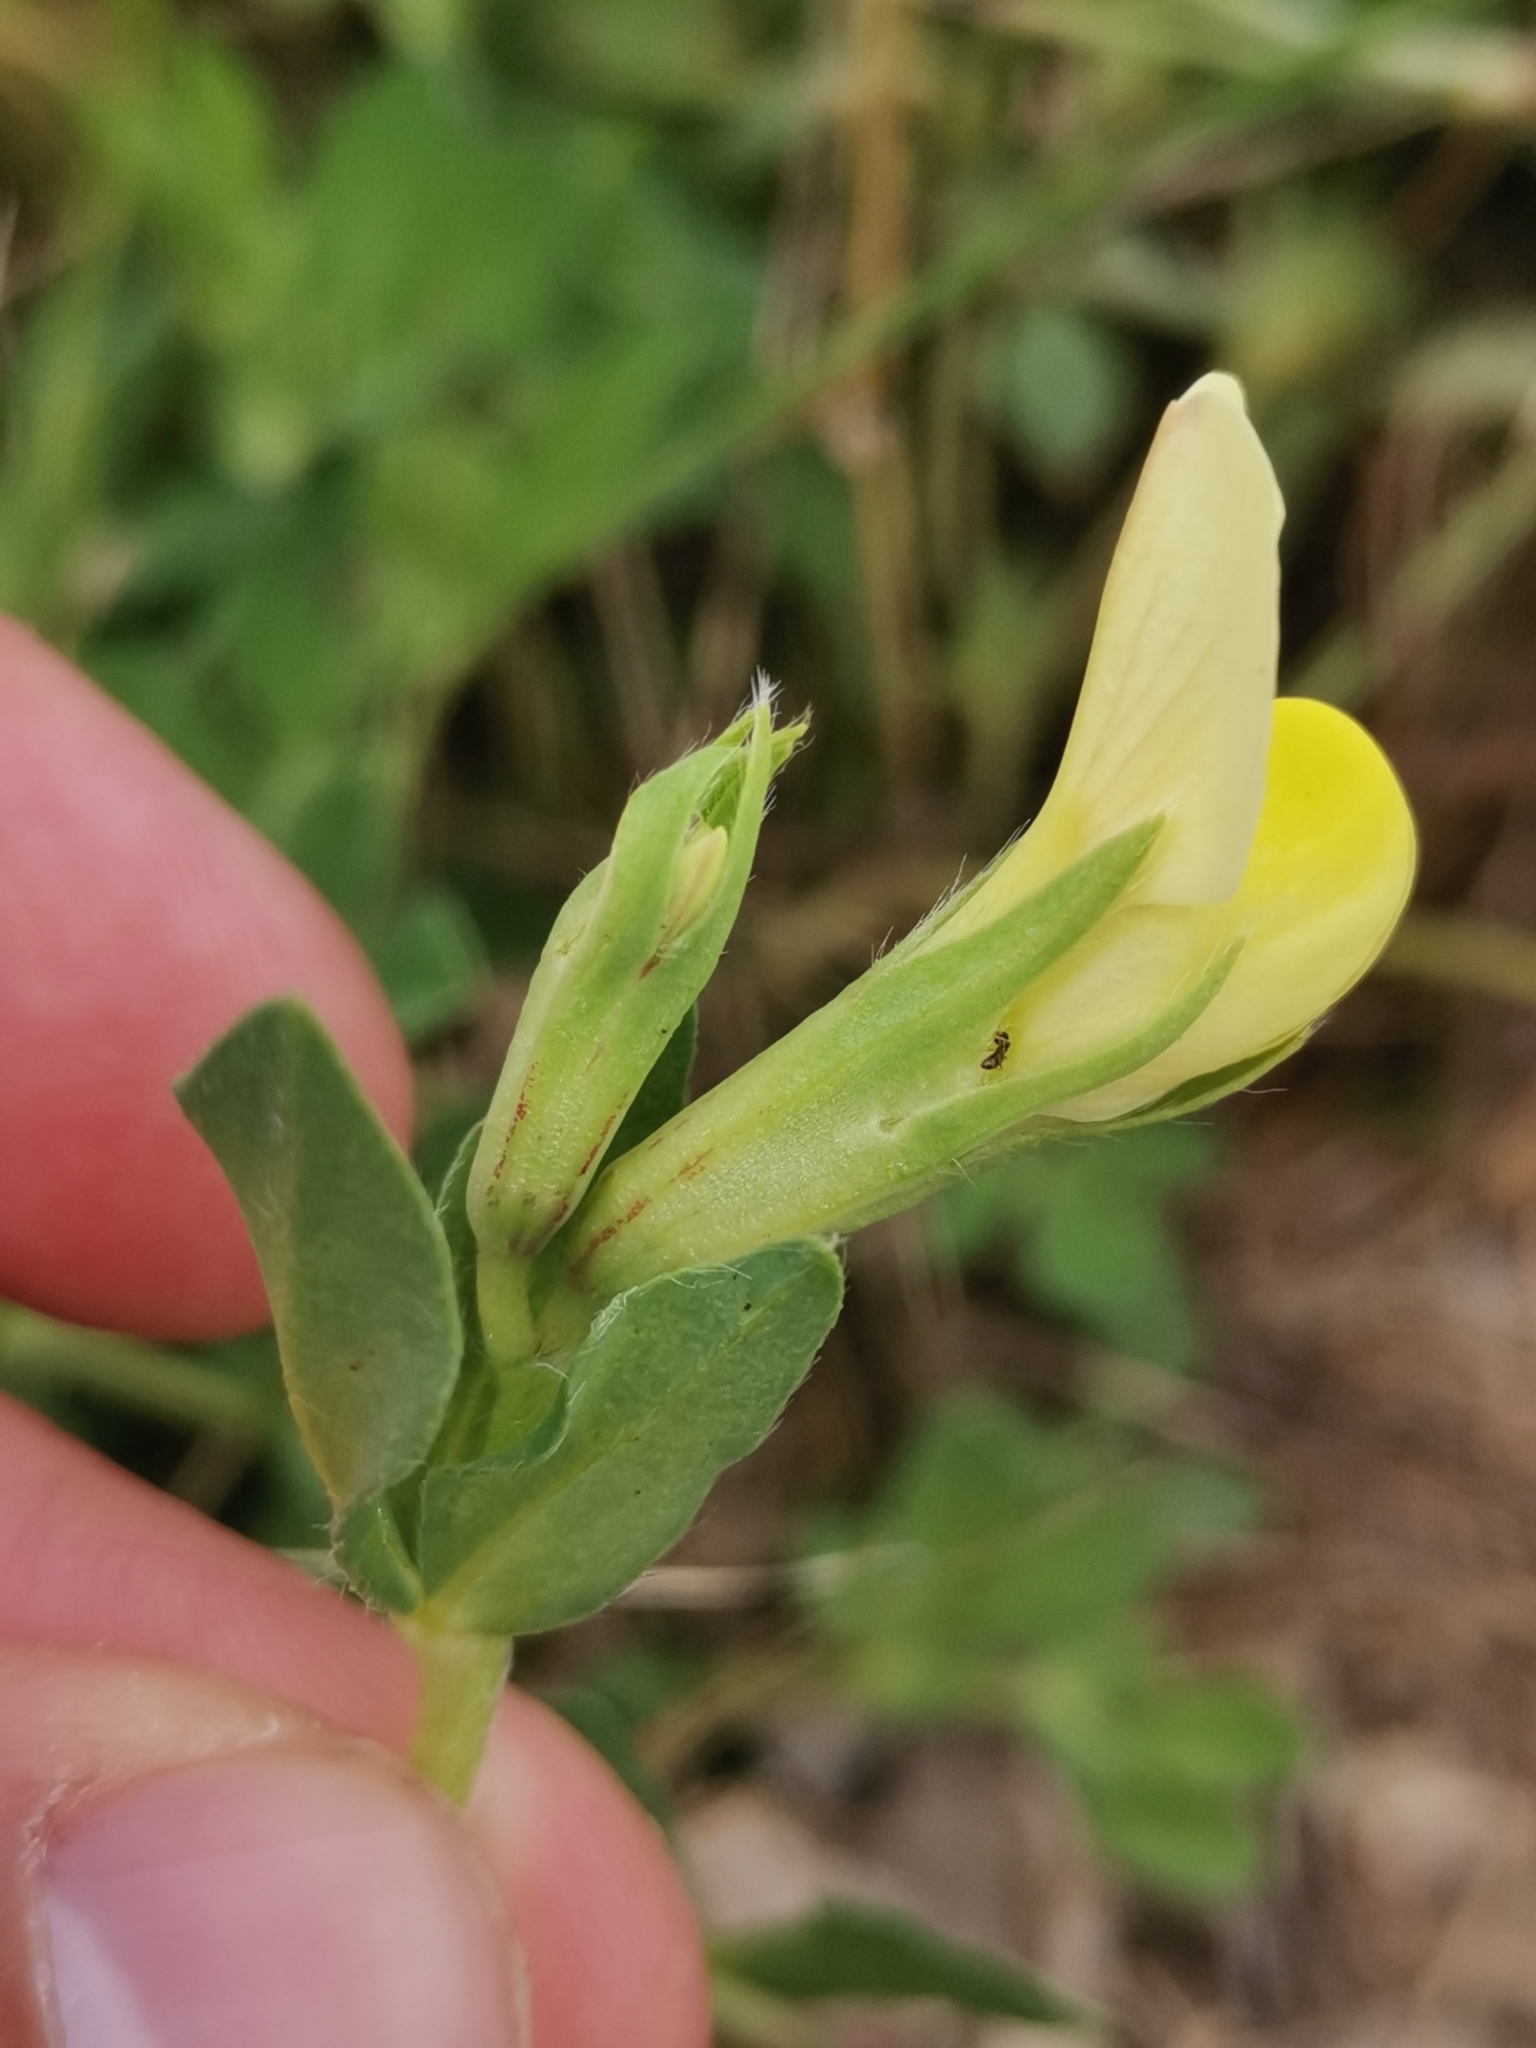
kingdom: Plantae
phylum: Tracheophyta
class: Magnoliopsida
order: Fabales
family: Fabaceae
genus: Lotus
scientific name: Lotus maritimus
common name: Dragon's-teeth
